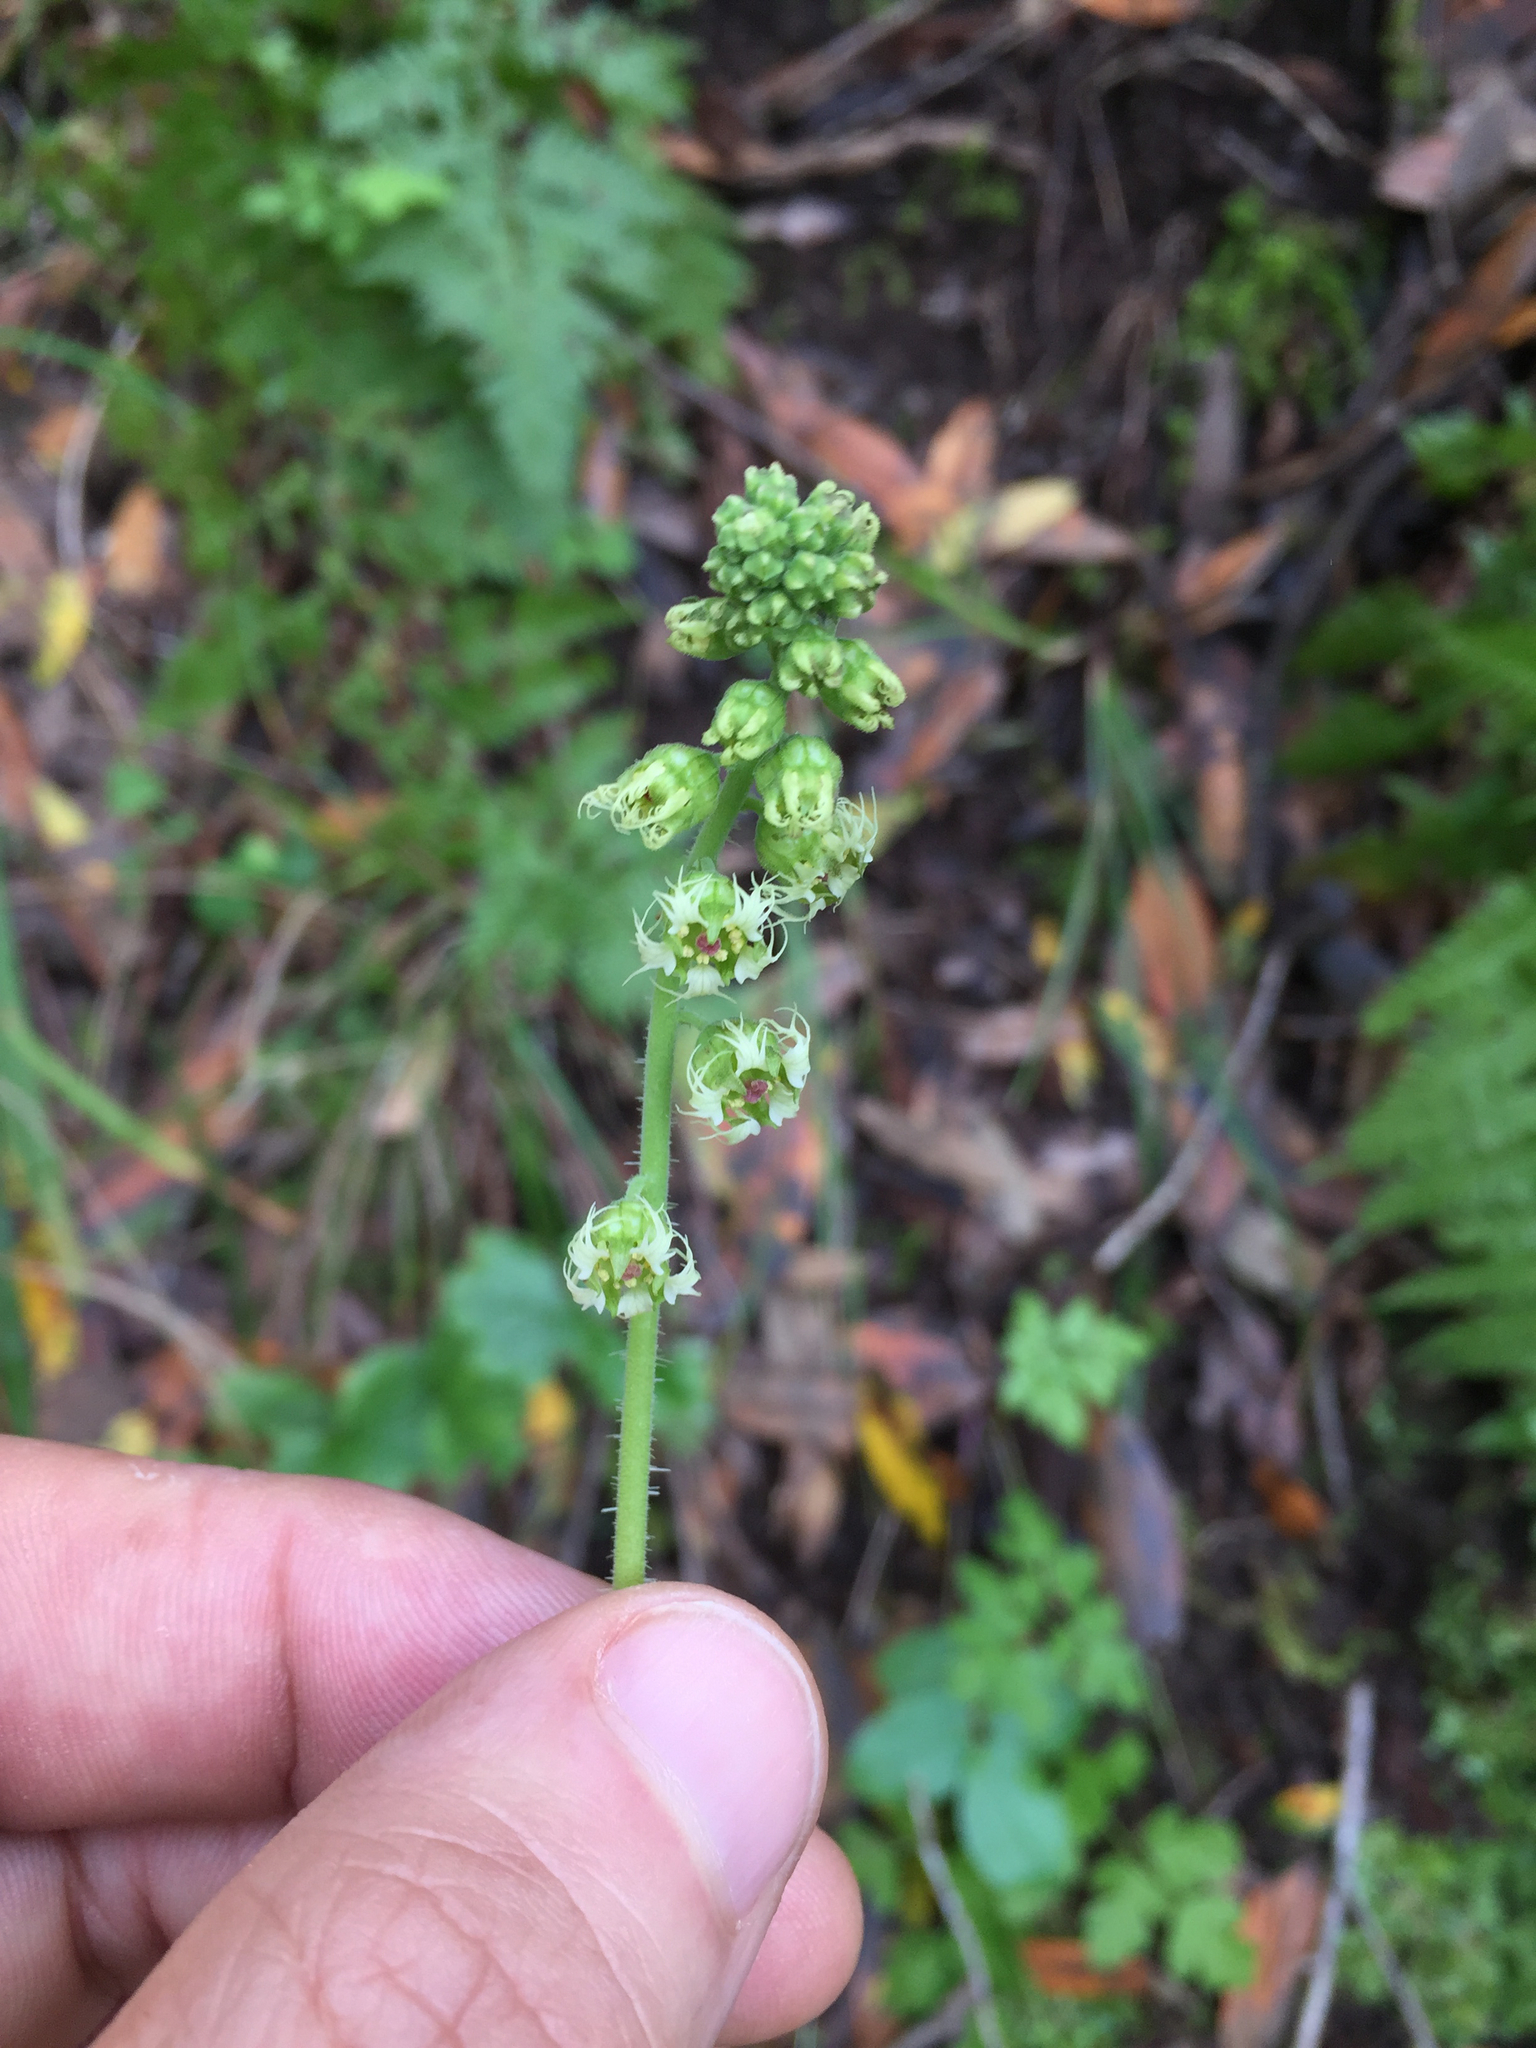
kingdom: Plantae
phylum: Tracheophyta
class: Magnoliopsida
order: Saxifragales
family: Saxifragaceae
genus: Tellima
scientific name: Tellima grandiflora
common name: Fringecups
